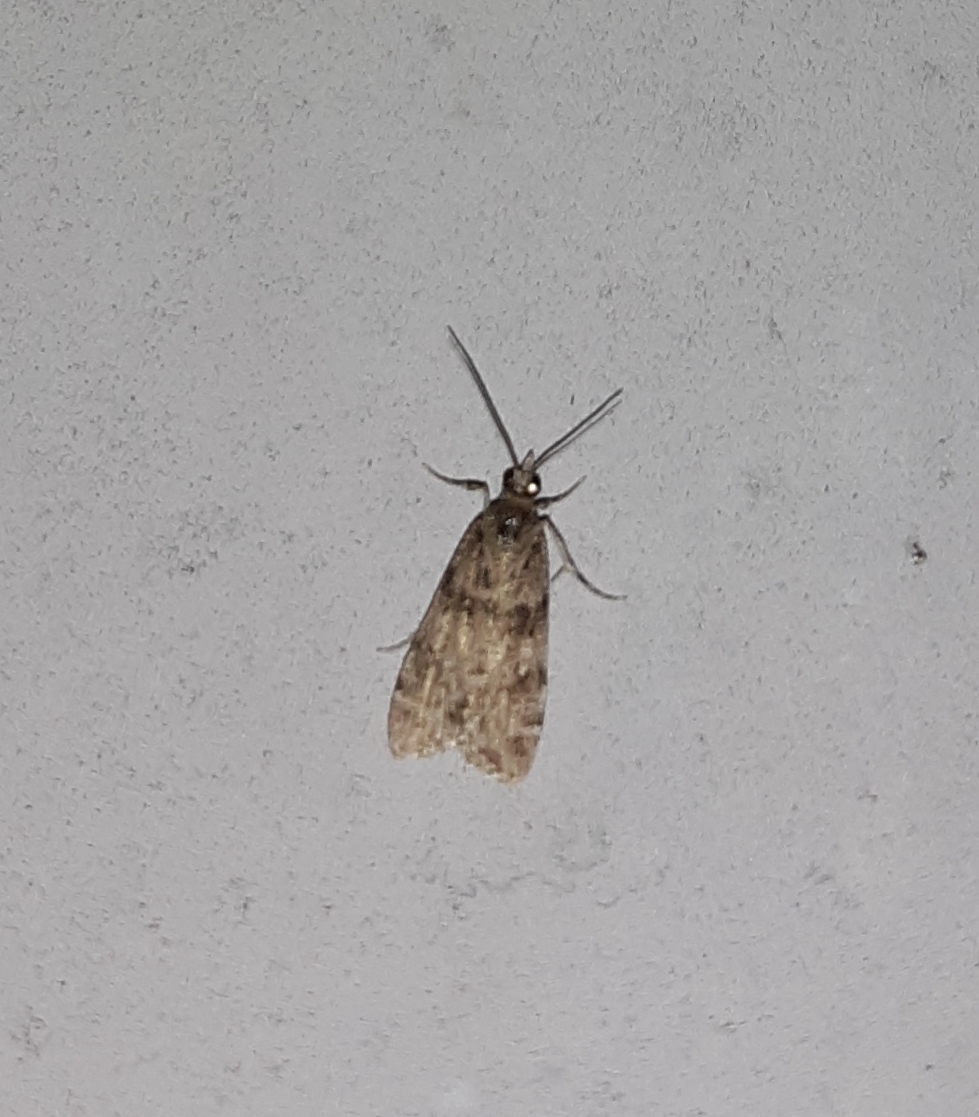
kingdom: Animalia
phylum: Arthropoda
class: Insecta
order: Lepidoptera
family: Crambidae
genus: Scoparia
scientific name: Scoparia biplagialis
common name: Double-striped scoparia moth
